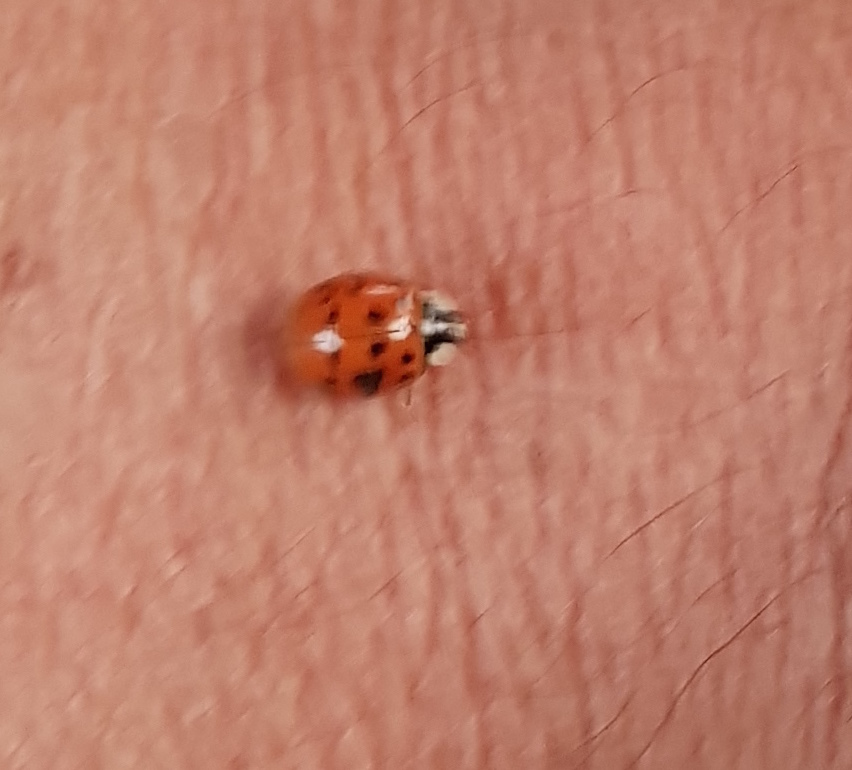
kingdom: Animalia
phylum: Arthropoda
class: Insecta
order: Coleoptera
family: Coccinellidae
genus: Harmonia
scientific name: Harmonia axyridis
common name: Harlequin ladybird
